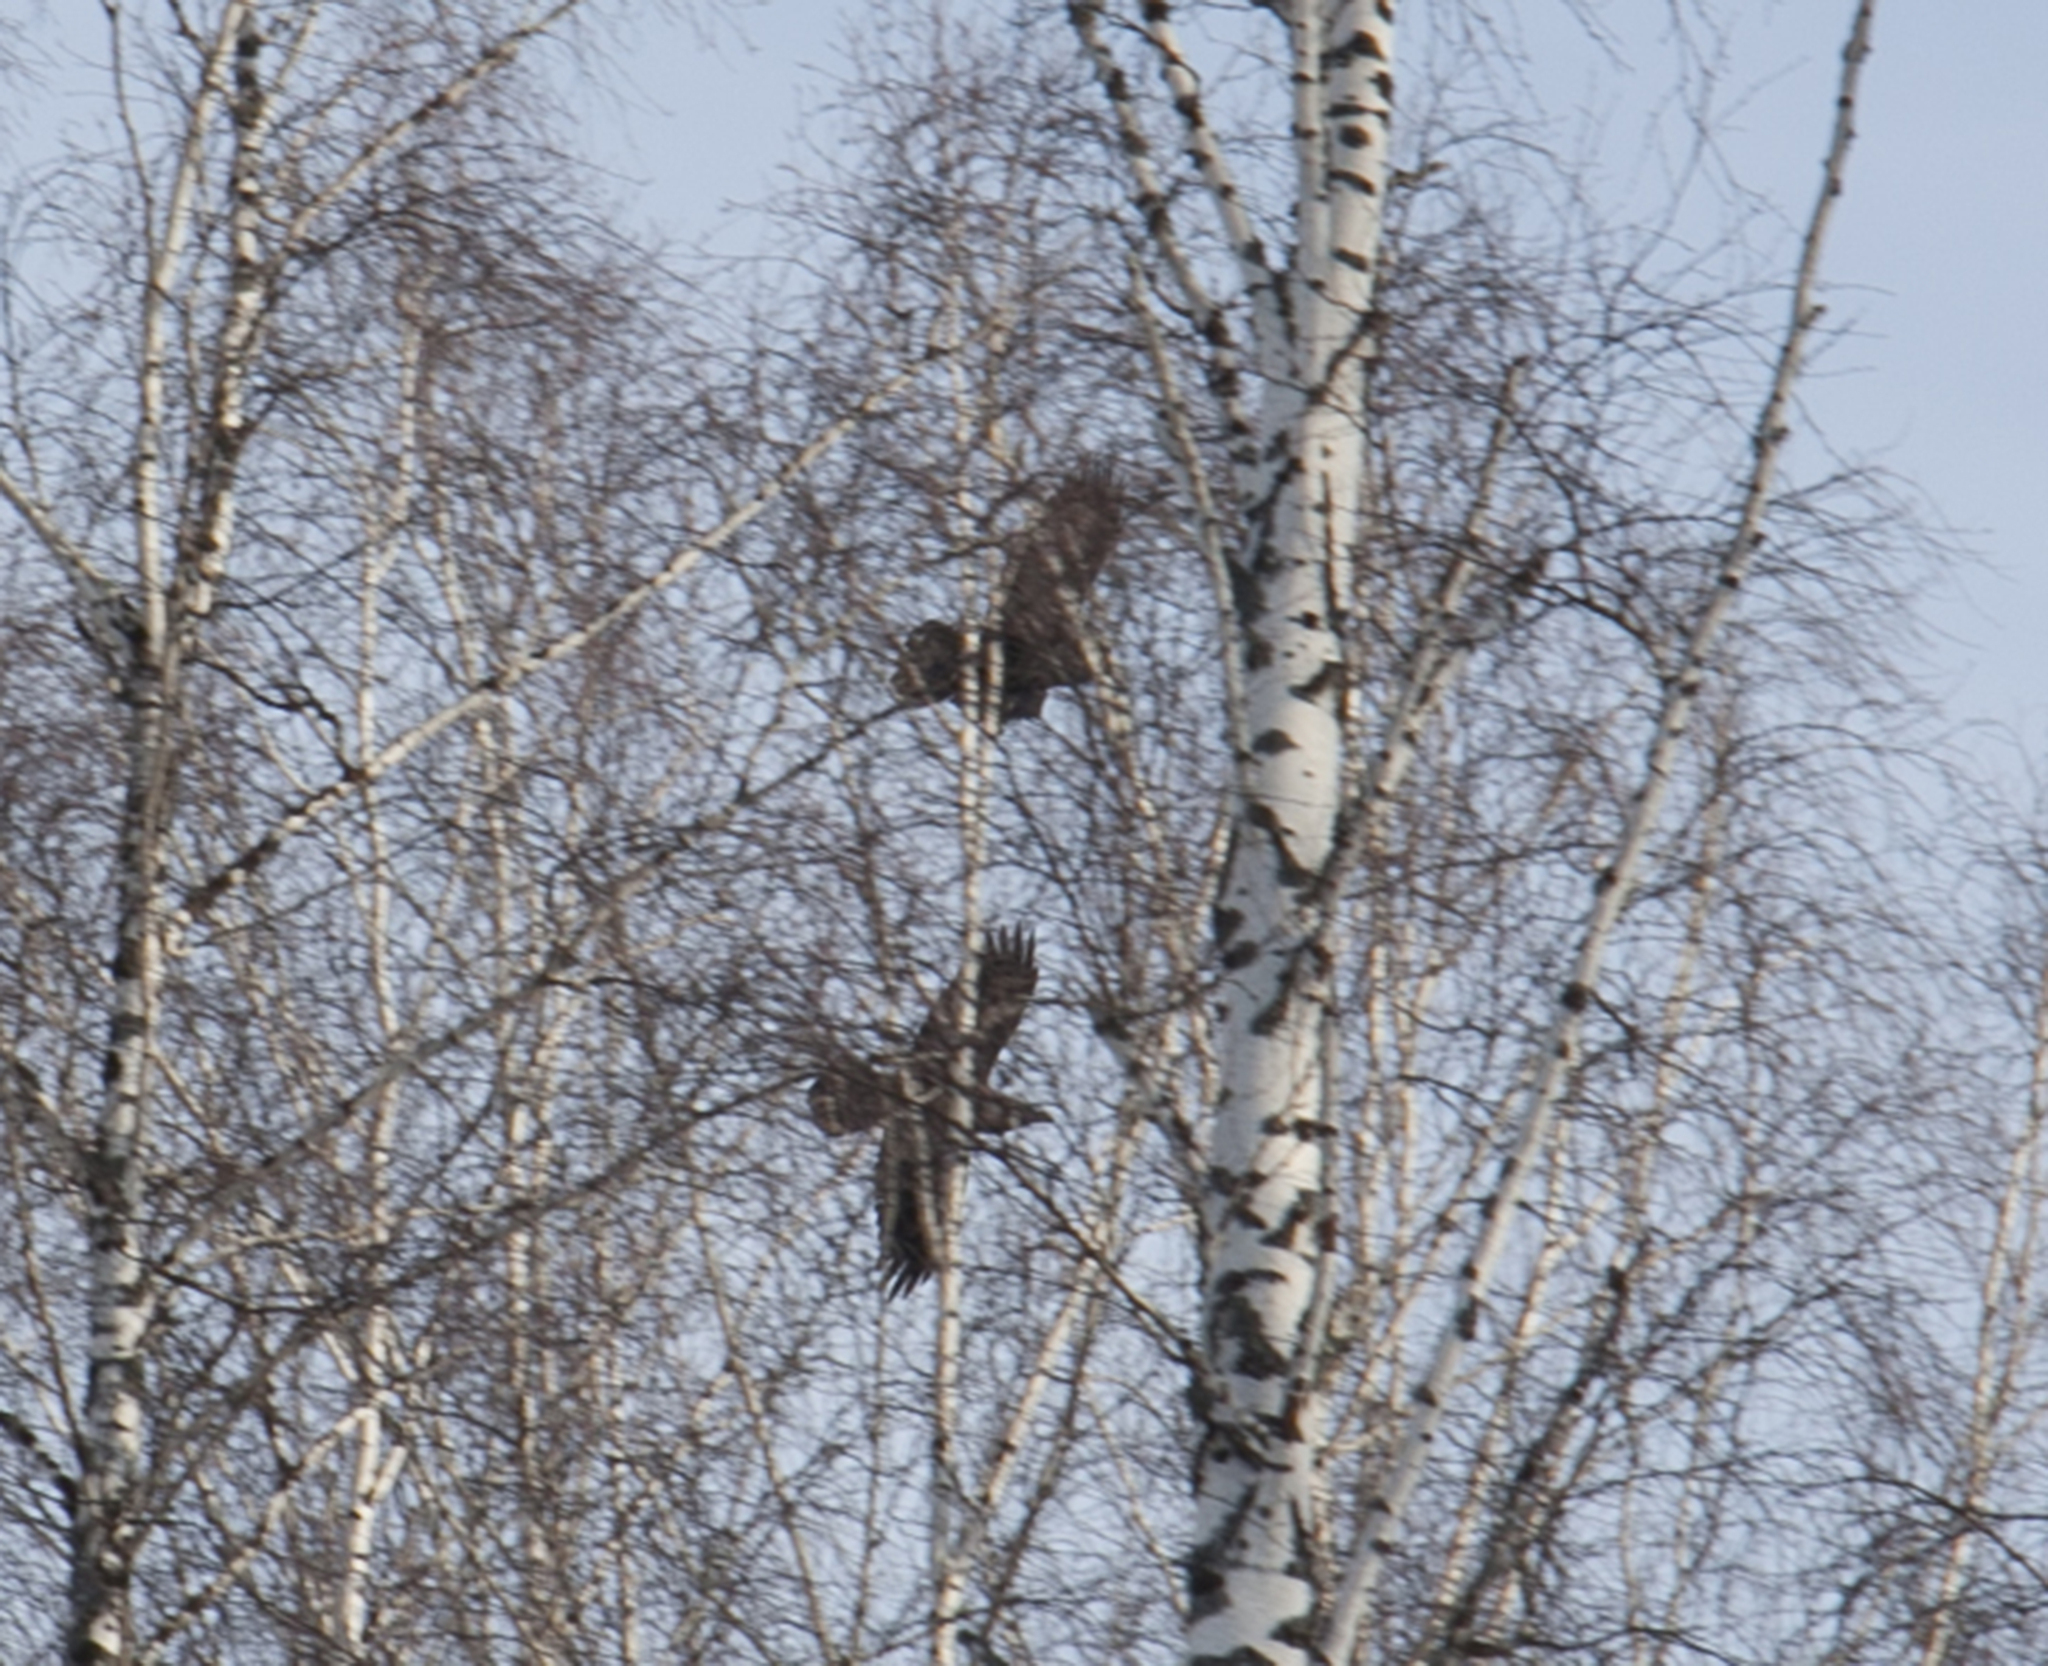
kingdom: Animalia
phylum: Chordata
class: Aves
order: Passeriformes
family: Corvidae
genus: Corvus
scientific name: Corvus corax
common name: Common raven
